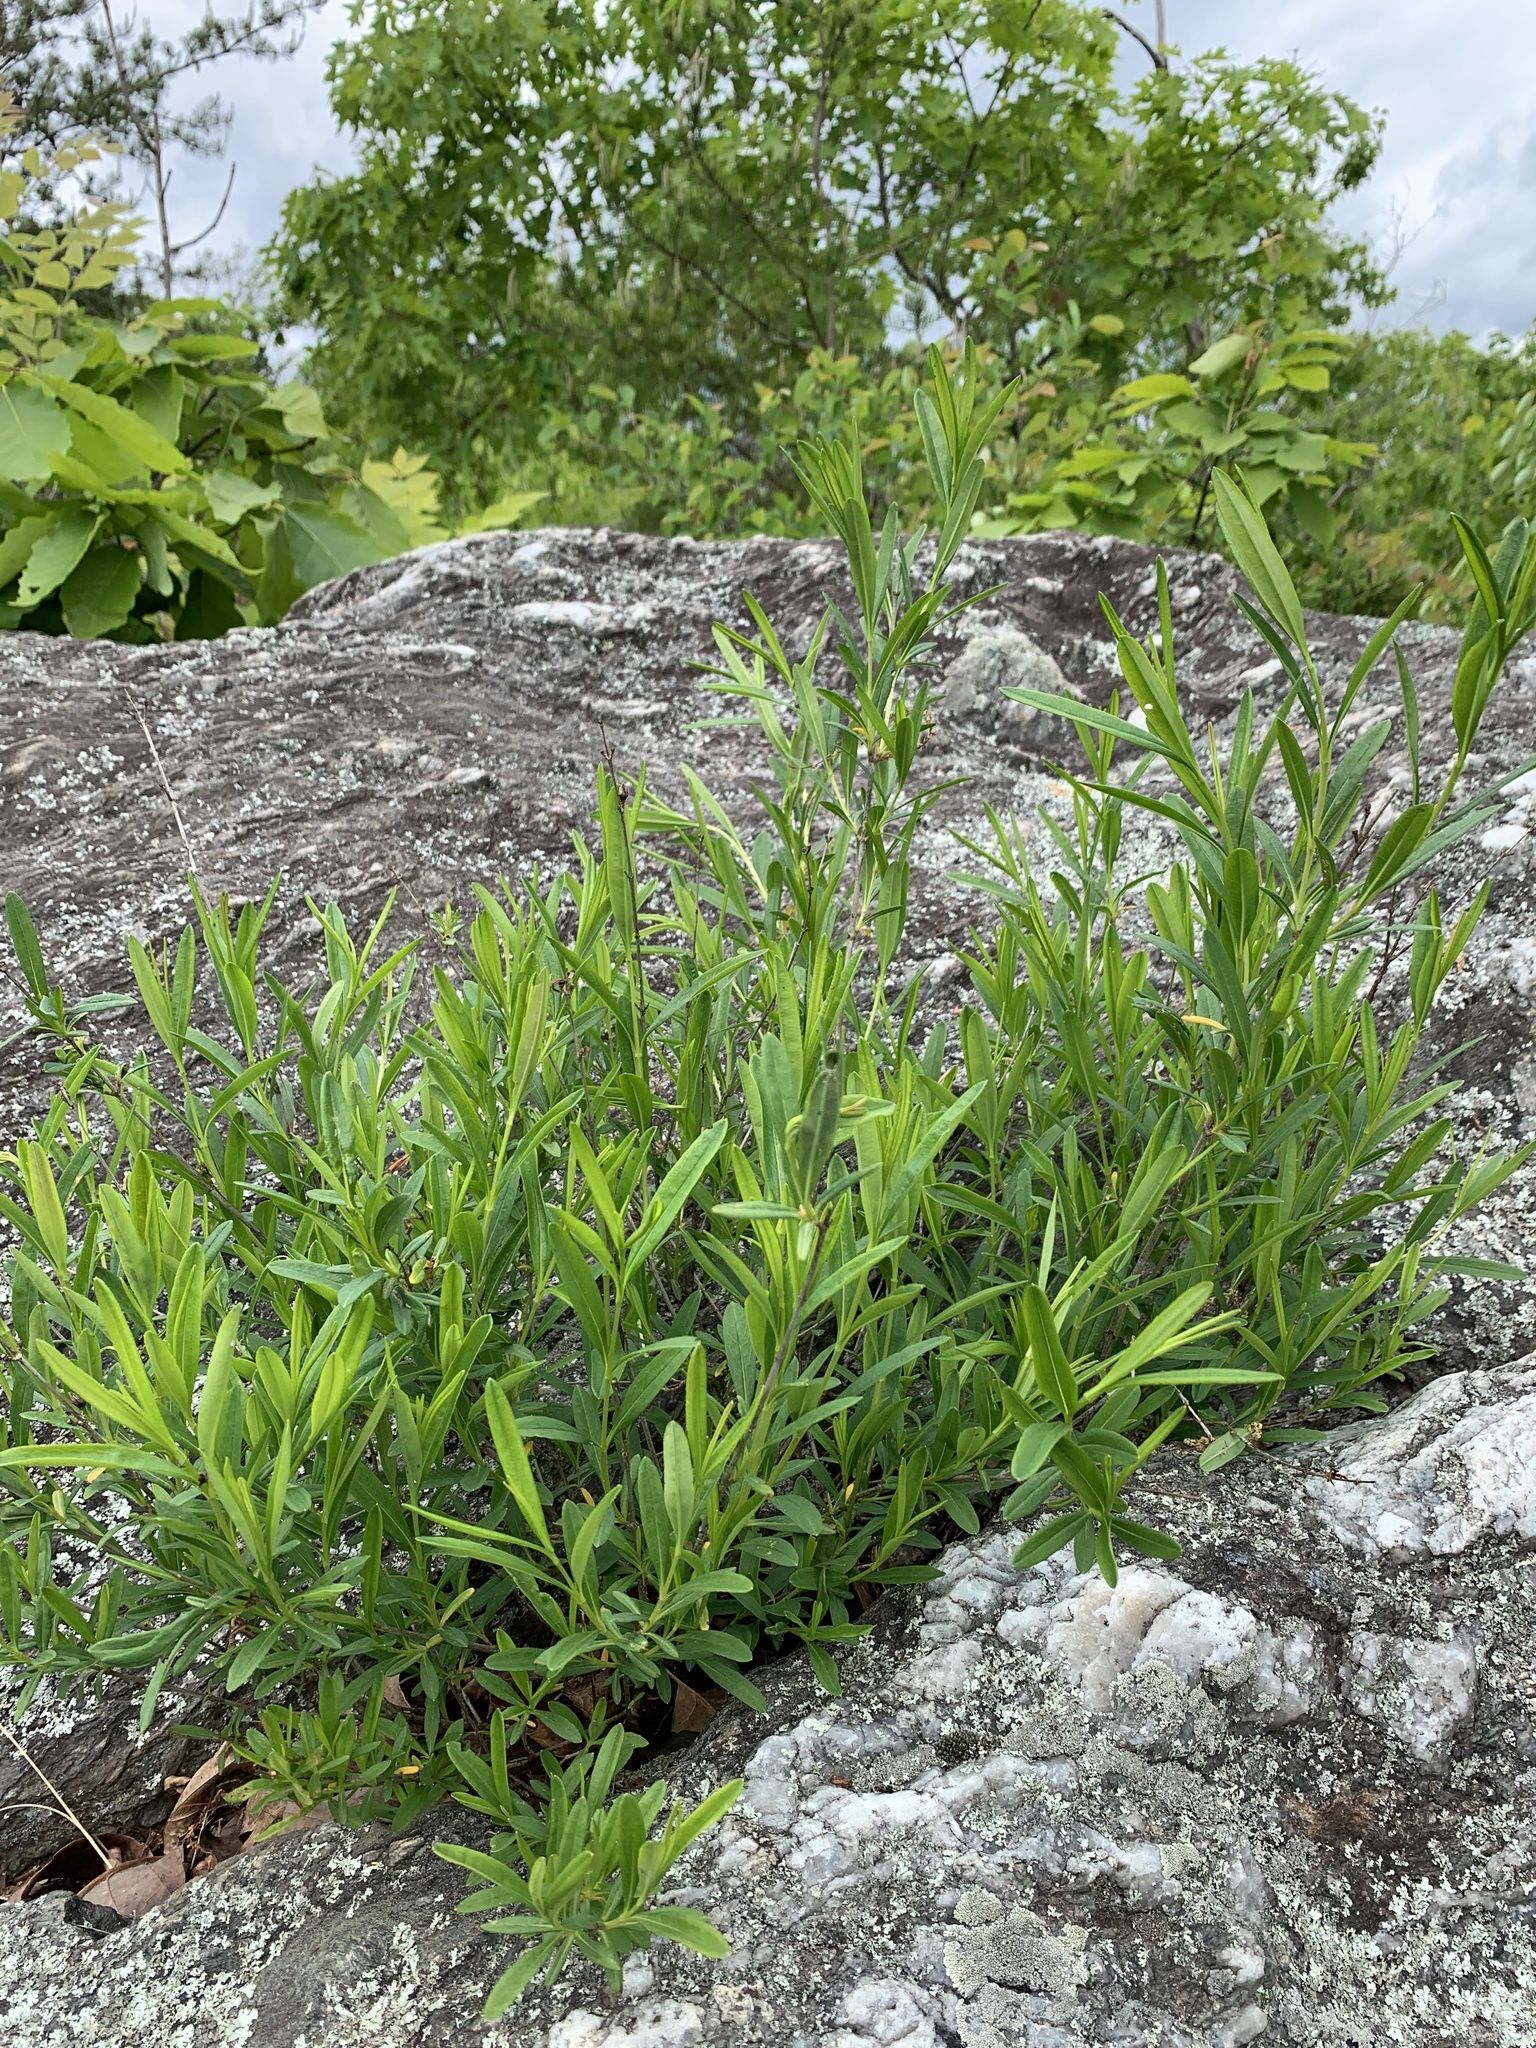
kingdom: Plantae
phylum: Tracheophyta
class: Magnoliopsida
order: Malpighiales
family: Hypericaceae
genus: Hypericum
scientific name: Hypericum prolificum
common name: Shrubby st. john's-wort
